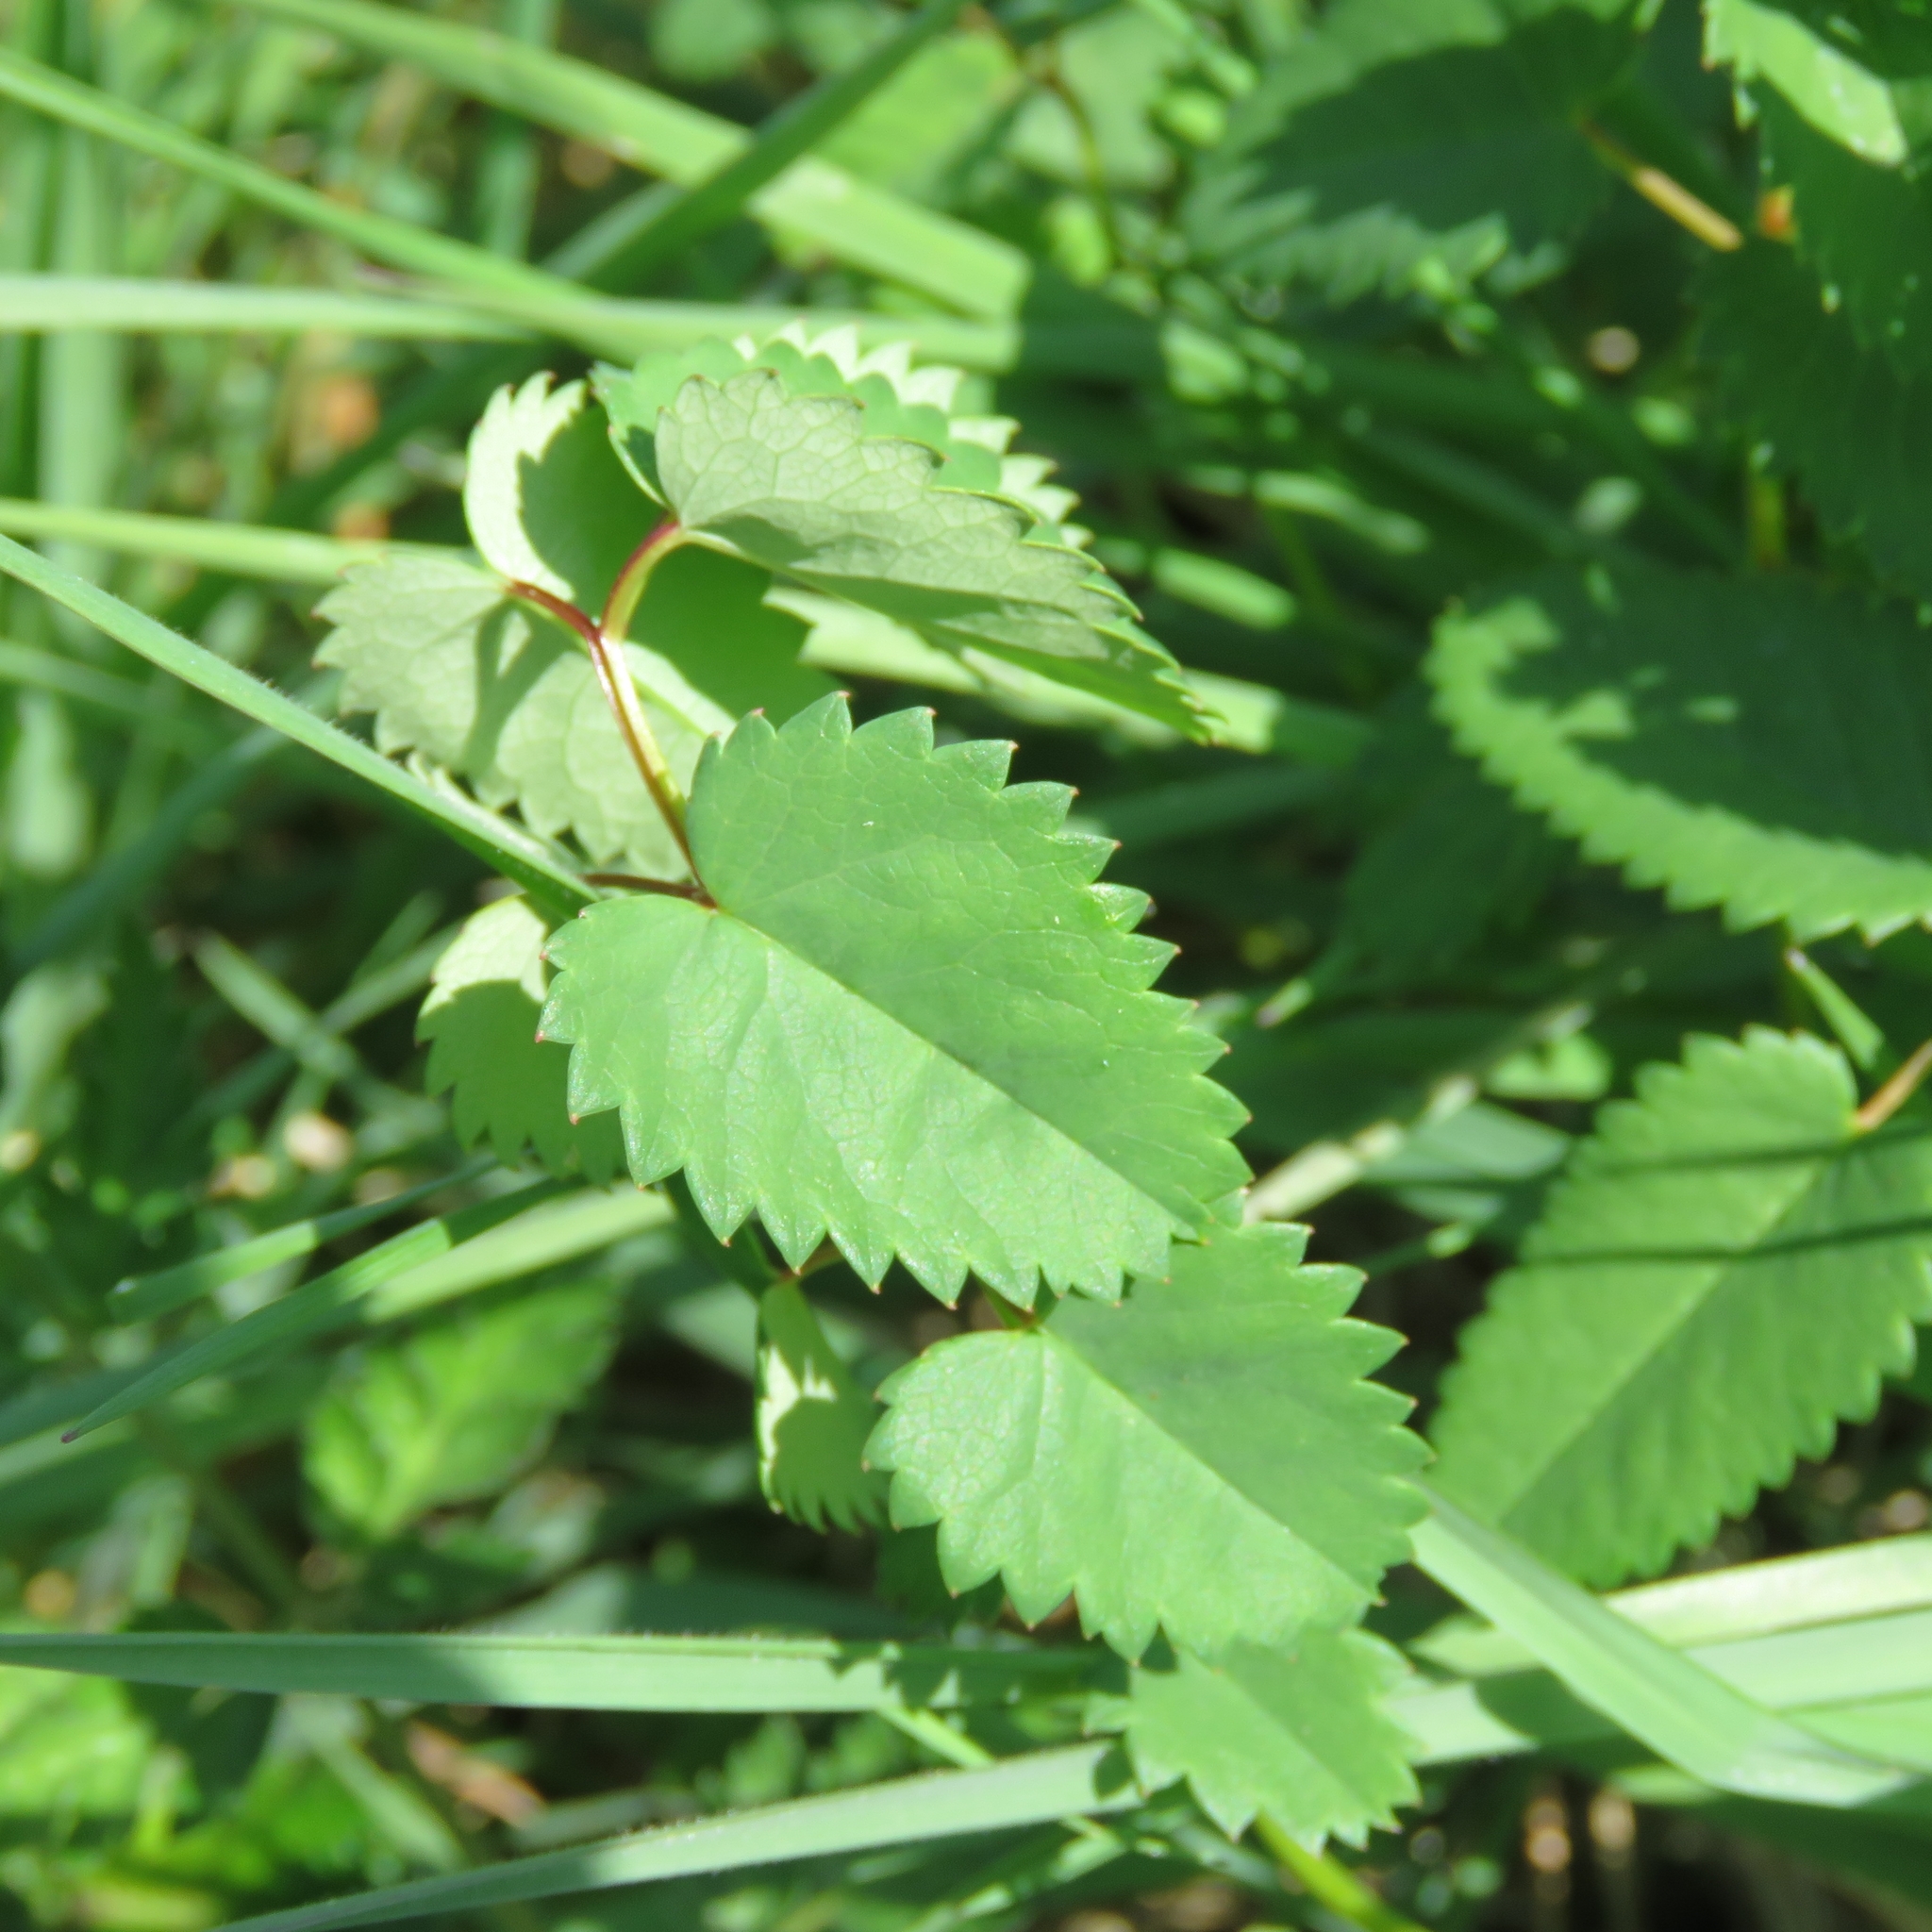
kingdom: Plantae
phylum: Tracheophyta
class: Magnoliopsida
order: Rosales
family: Rosaceae
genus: Sanguisorba
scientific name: Sanguisorba officinalis
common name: Great burnet
